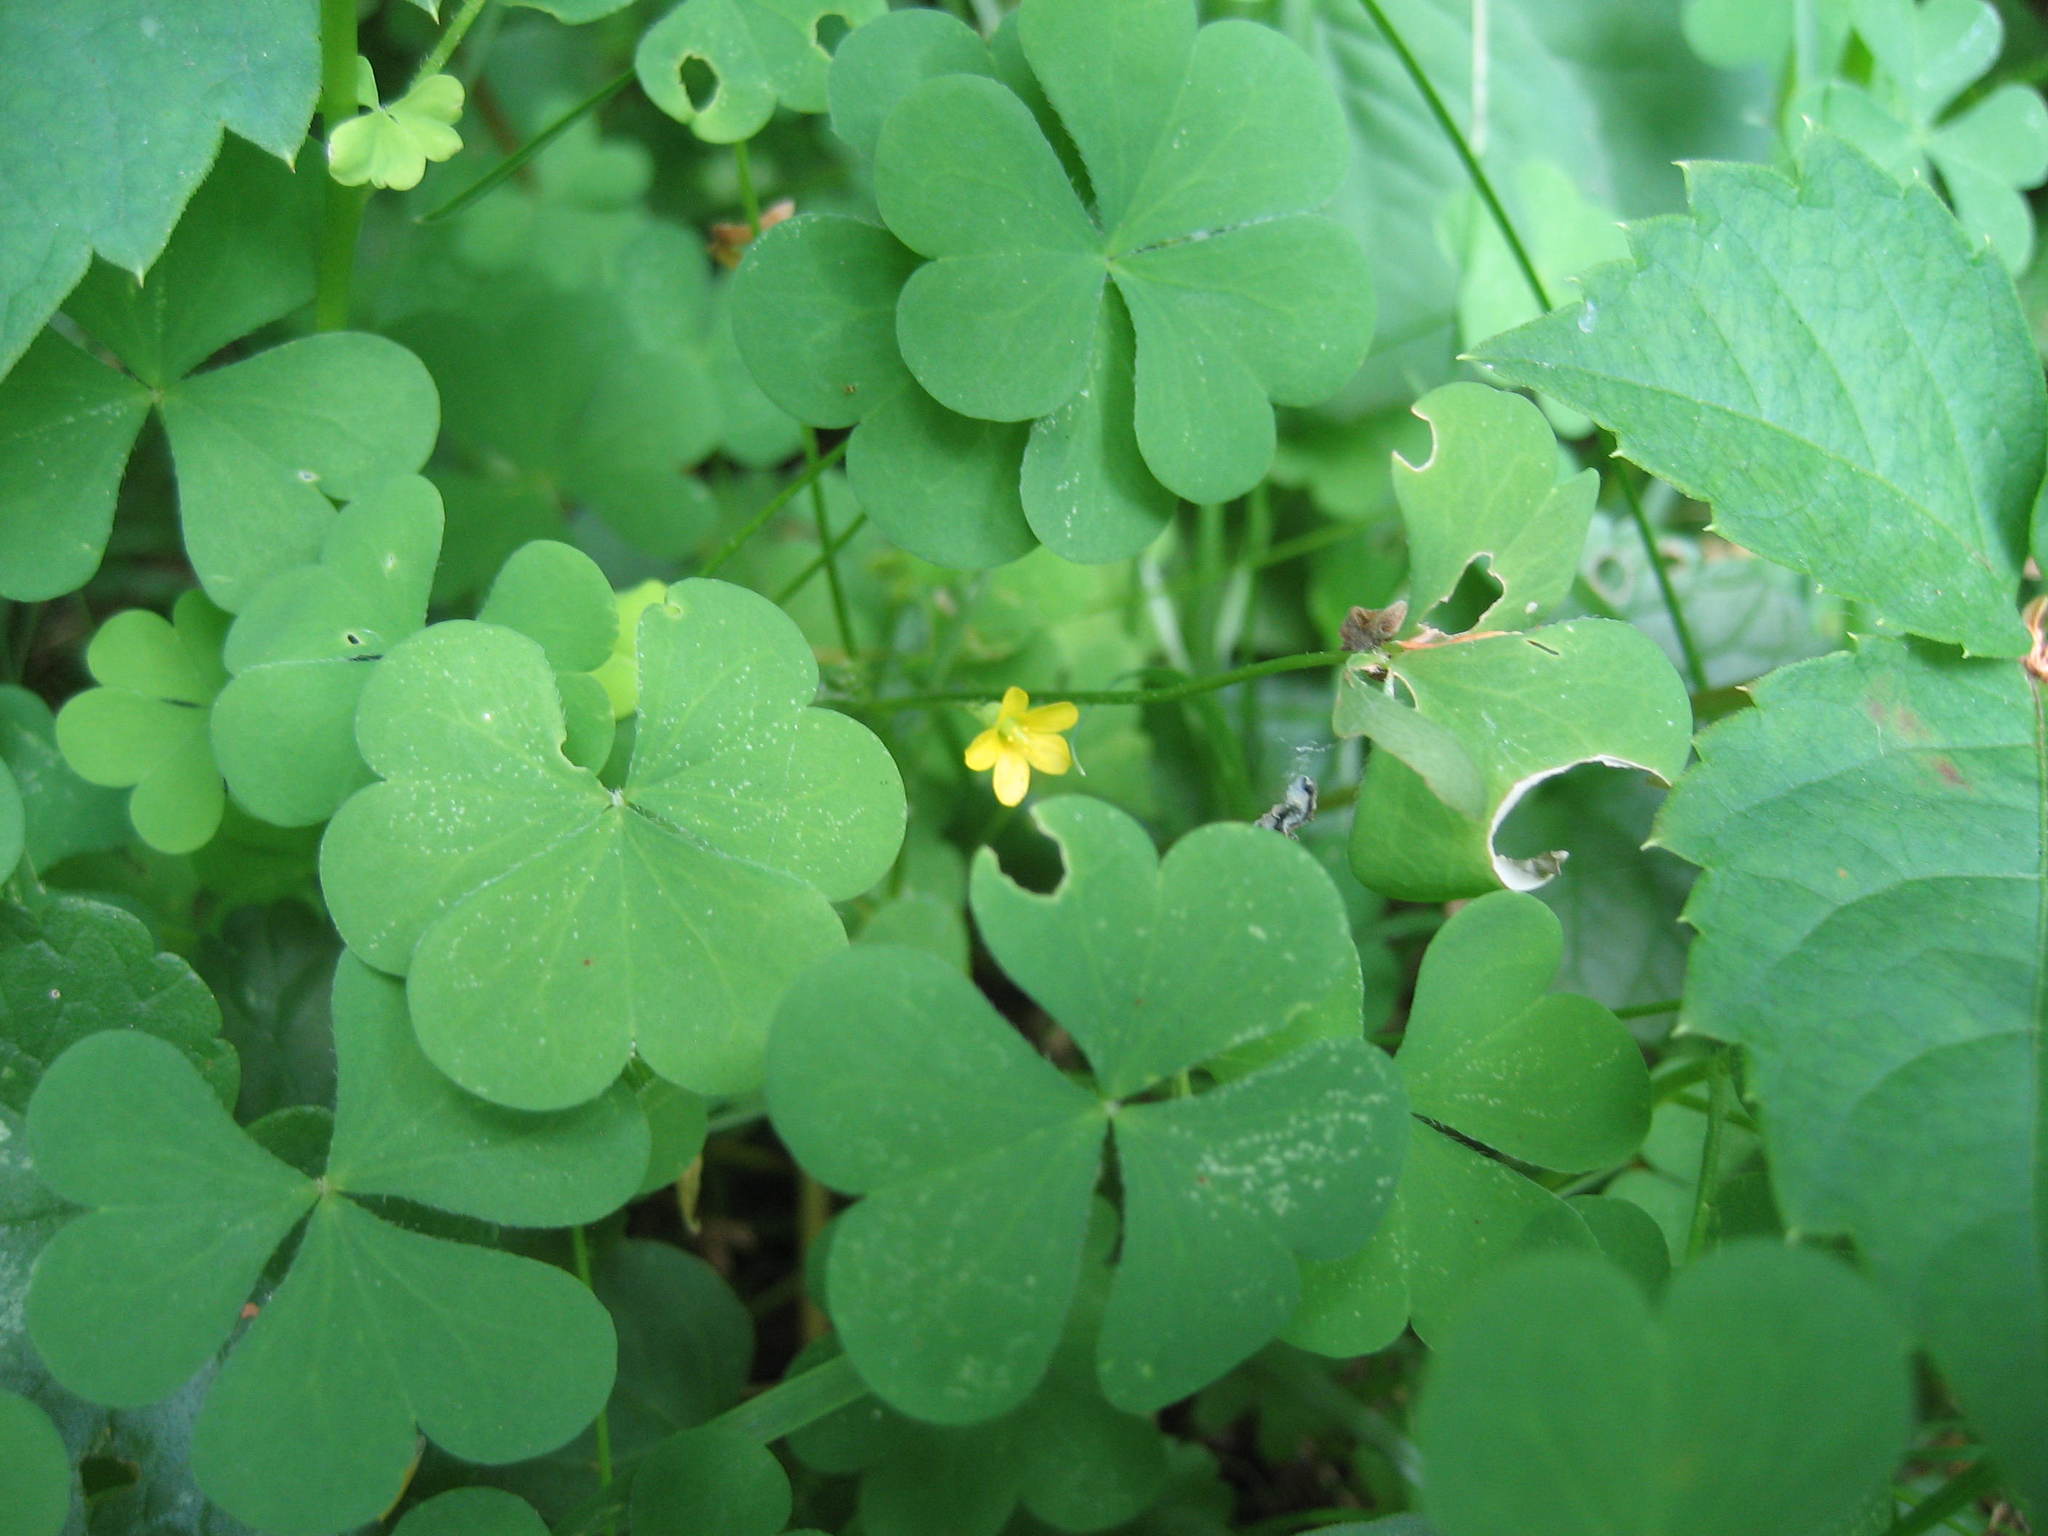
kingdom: Plantae
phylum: Tracheophyta
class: Magnoliopsida
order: Oxalidales
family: Oxalidaceae
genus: Oxalis
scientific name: Oxalis stricta
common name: Upright yellow-sorrel
